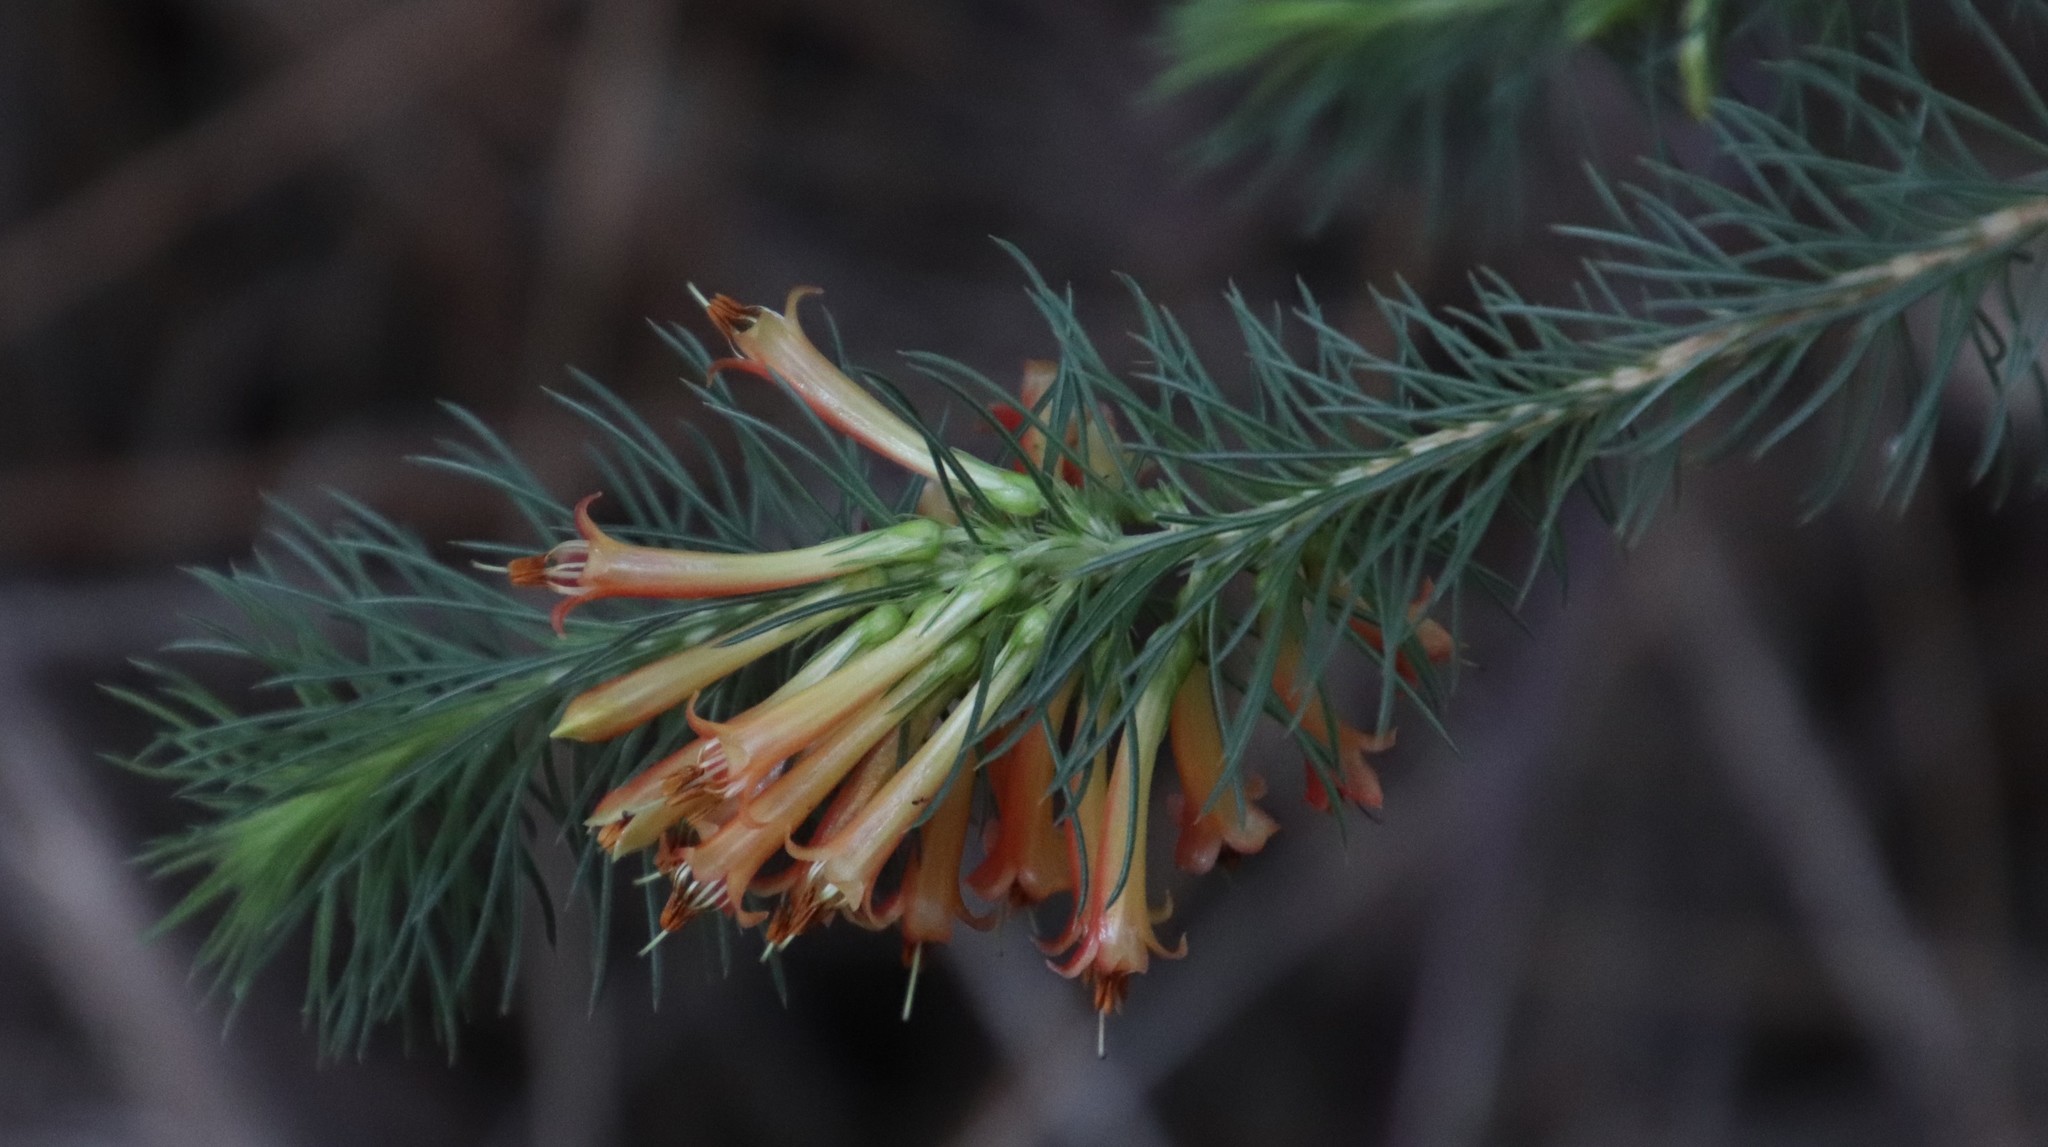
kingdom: Plantae
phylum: Tracheophyta
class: Magnoliopsida
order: Ericales
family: Ericaceae
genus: Erica
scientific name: Erica grandiflora
